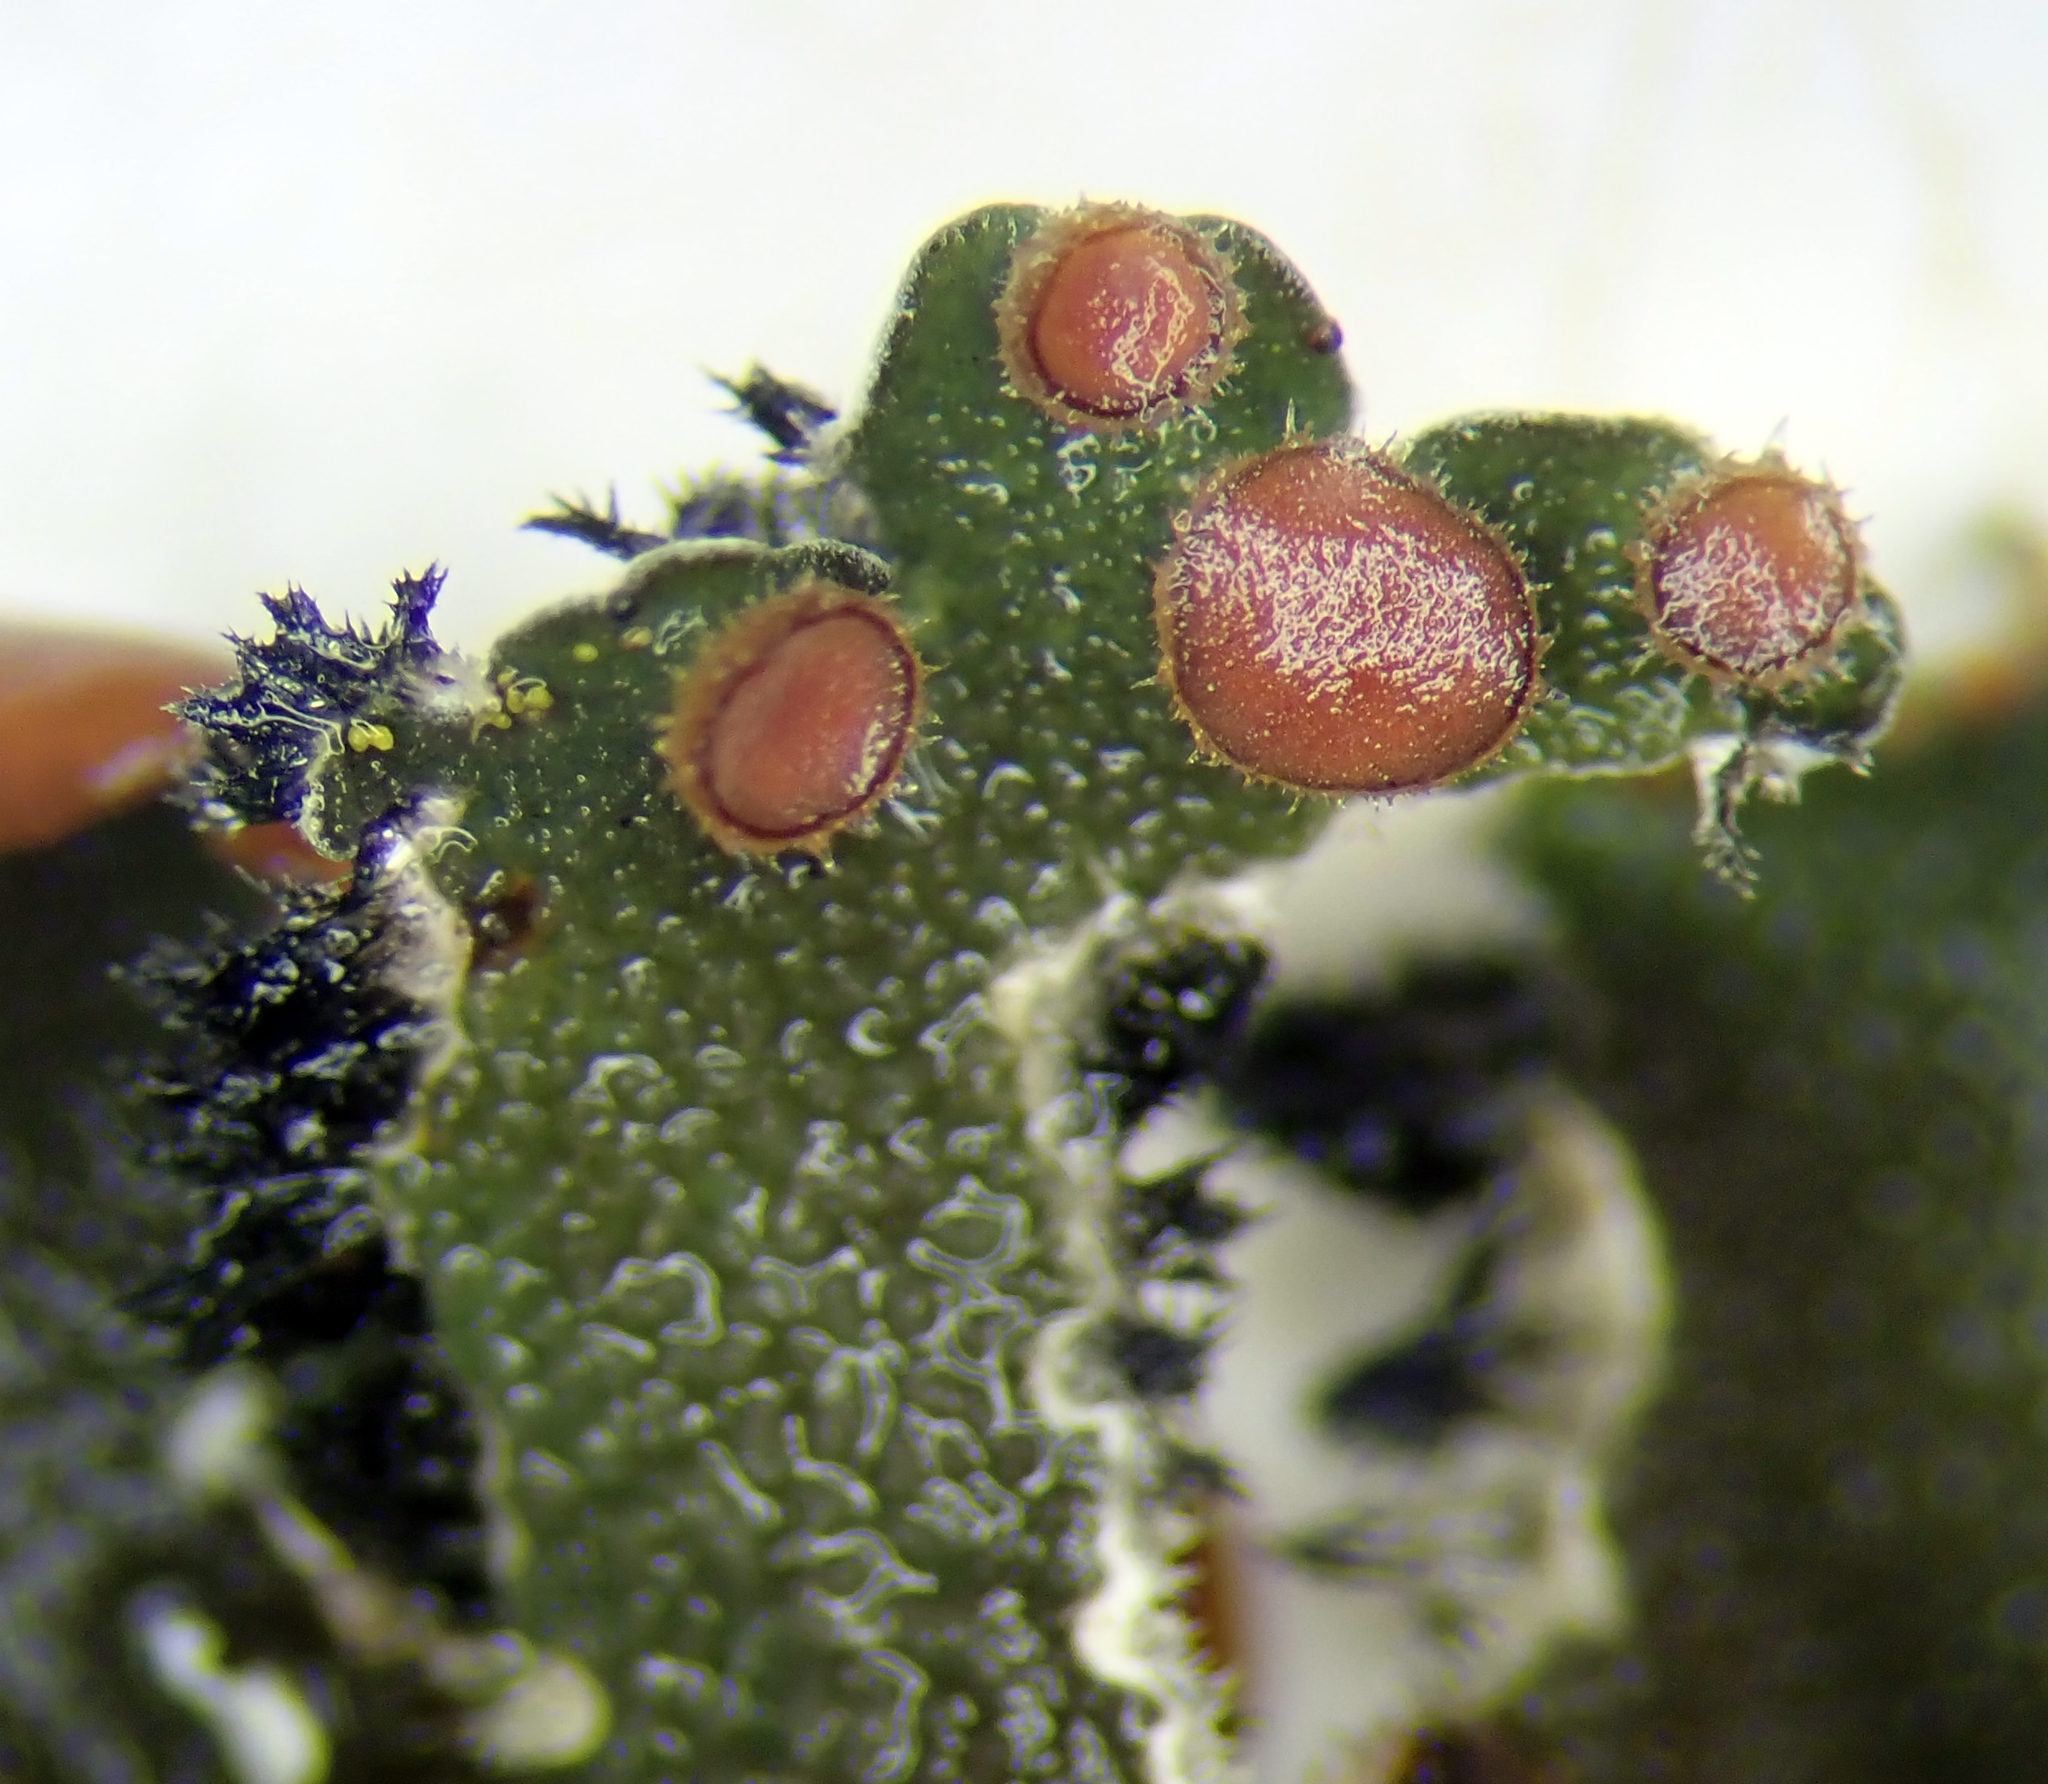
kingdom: Fungi
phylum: Ascomycota
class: Lecanoromycetes
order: Peltigerales
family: Pannariaceae
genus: Erioderma
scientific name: Erioderma leylandii
